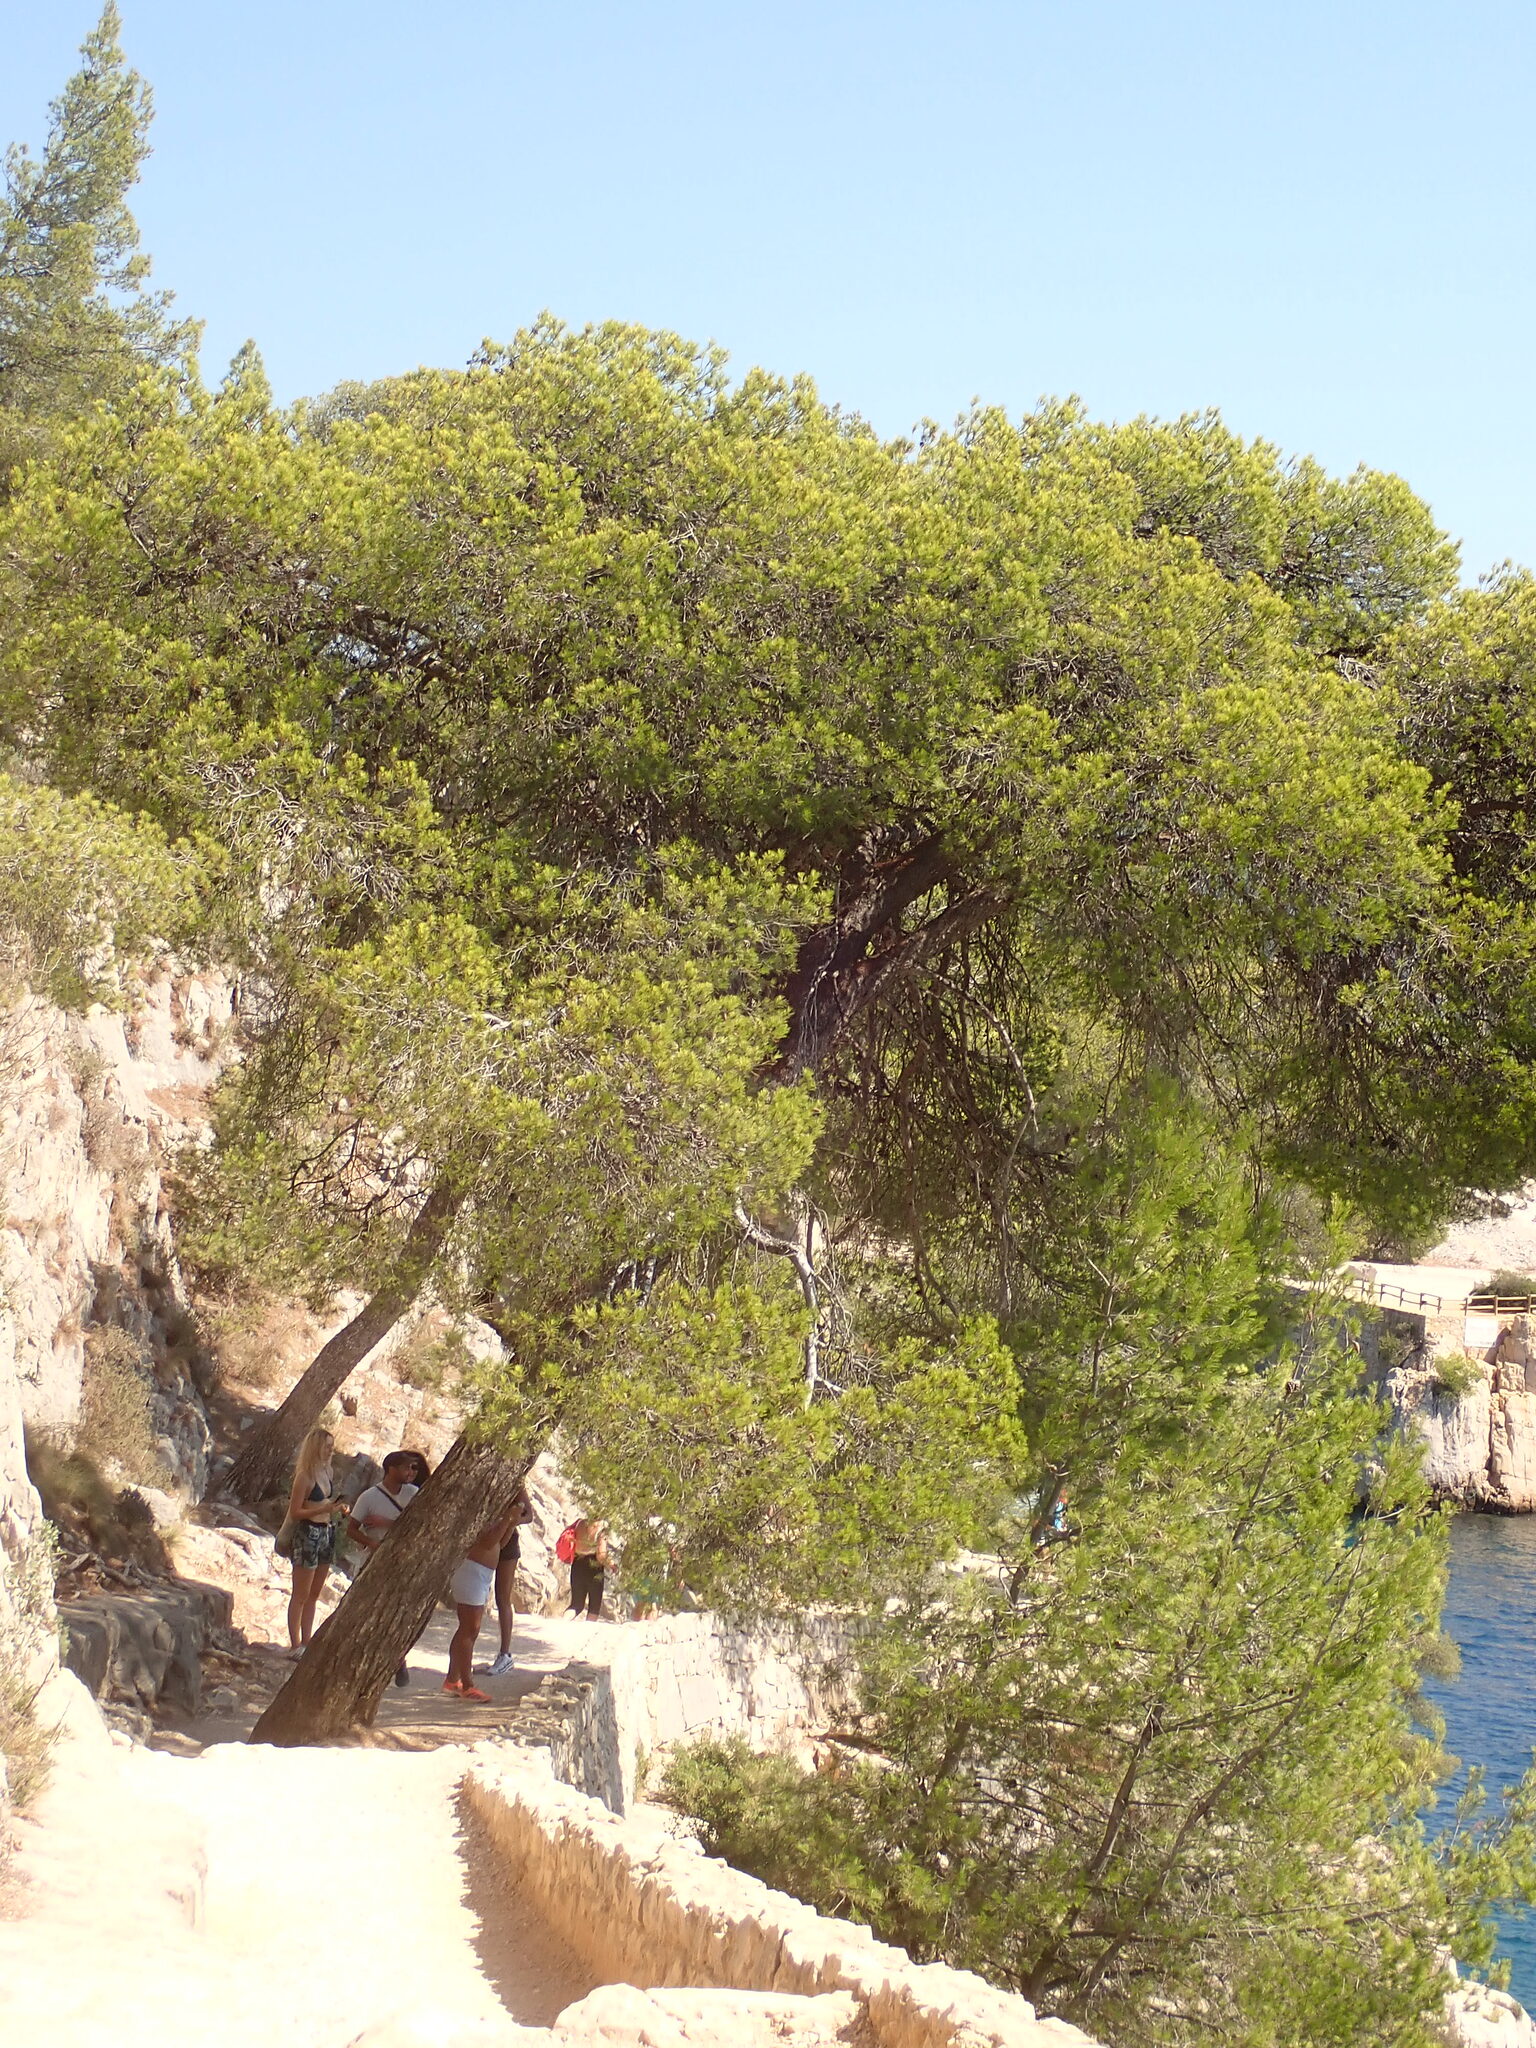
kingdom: Plantae
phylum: Tracheophyta
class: Pinopsida
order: Pinales
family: Pinaceae
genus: Pinus
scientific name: Pinus halepensis
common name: Aleppo pine
